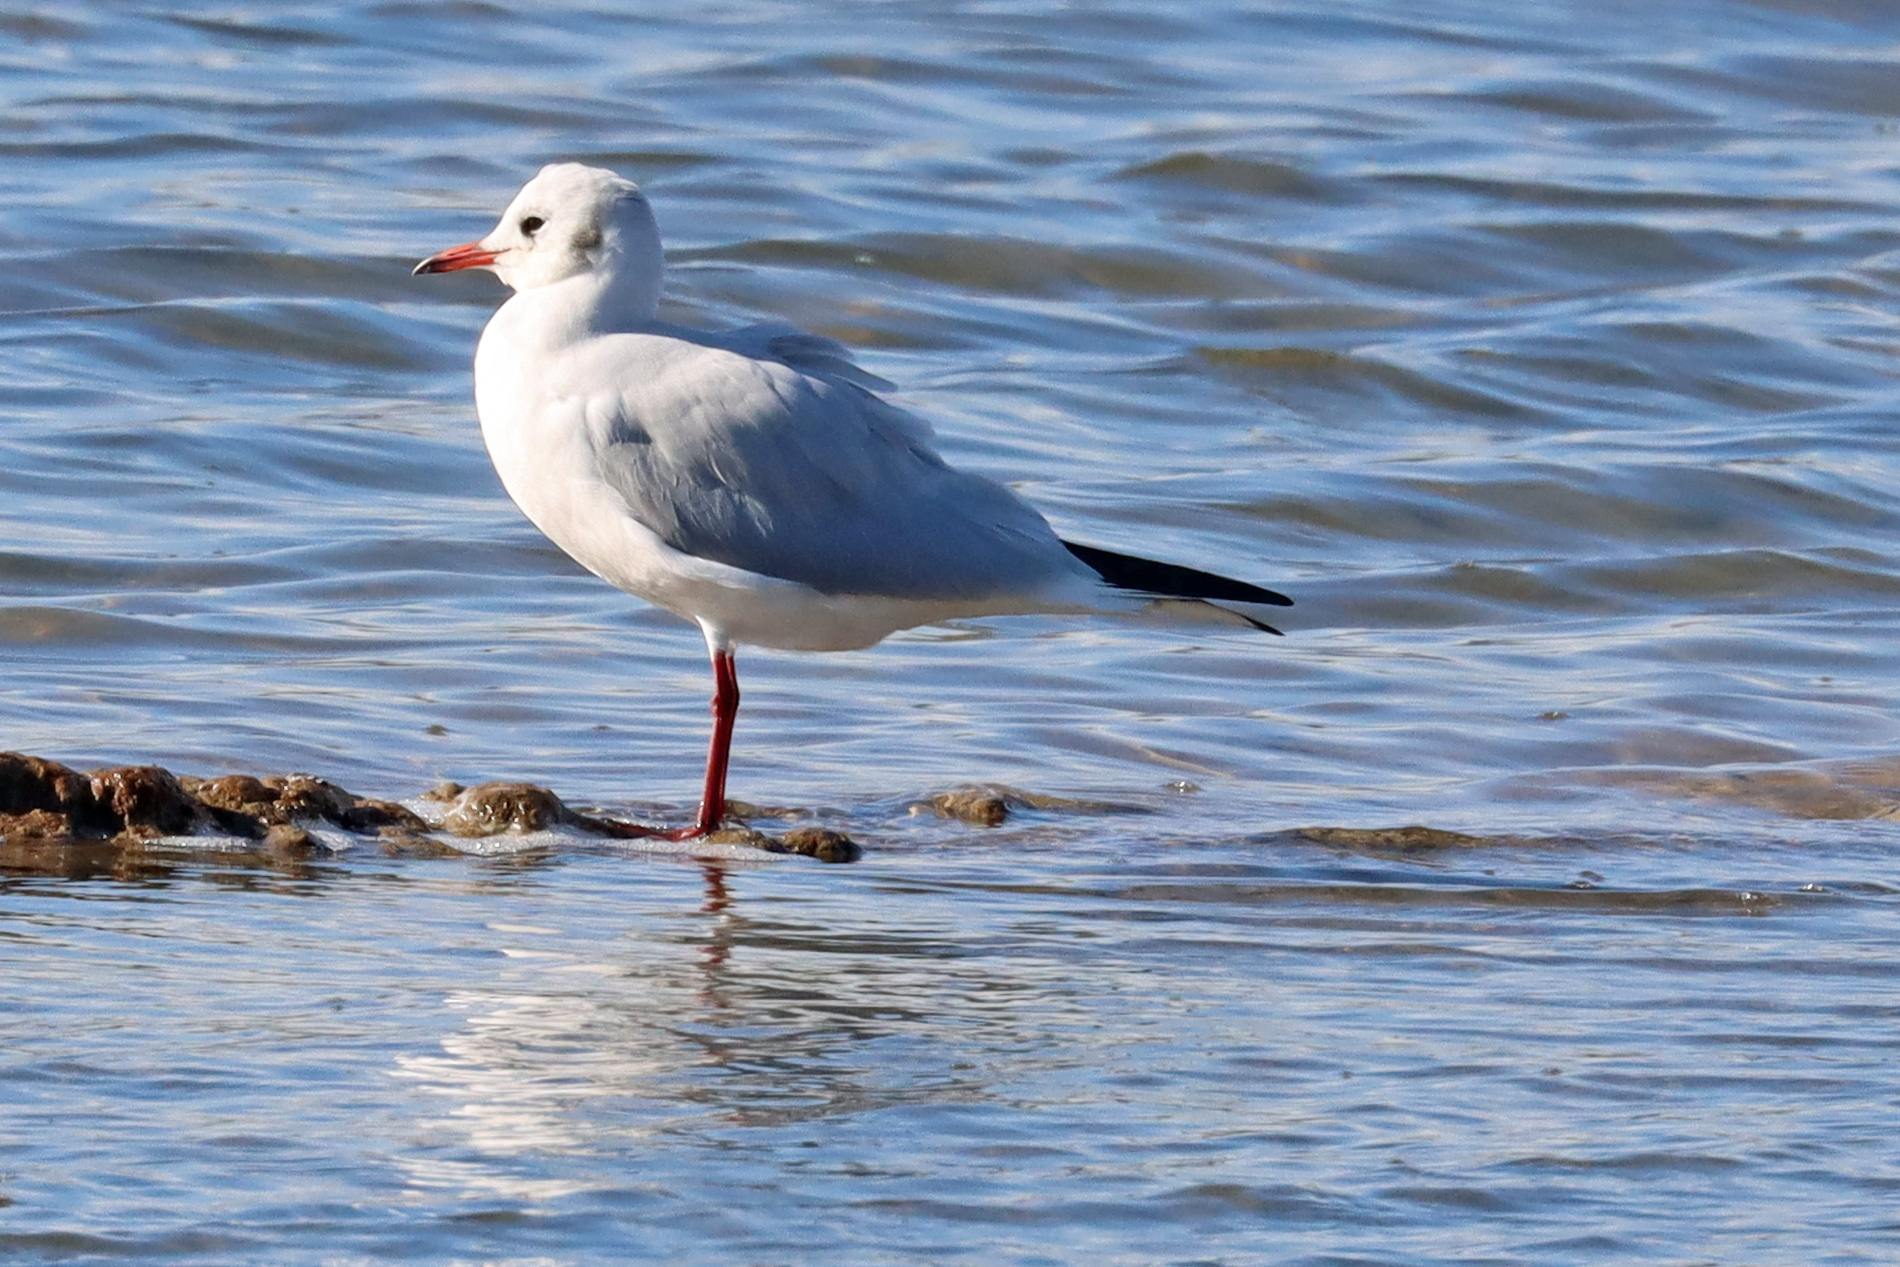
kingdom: Animalia
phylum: Chordata
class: Aves
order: Charadriiformes
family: Laridae
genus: Chroicocephalus
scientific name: Chroicocephalus ridibundus
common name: Black-headed gull
